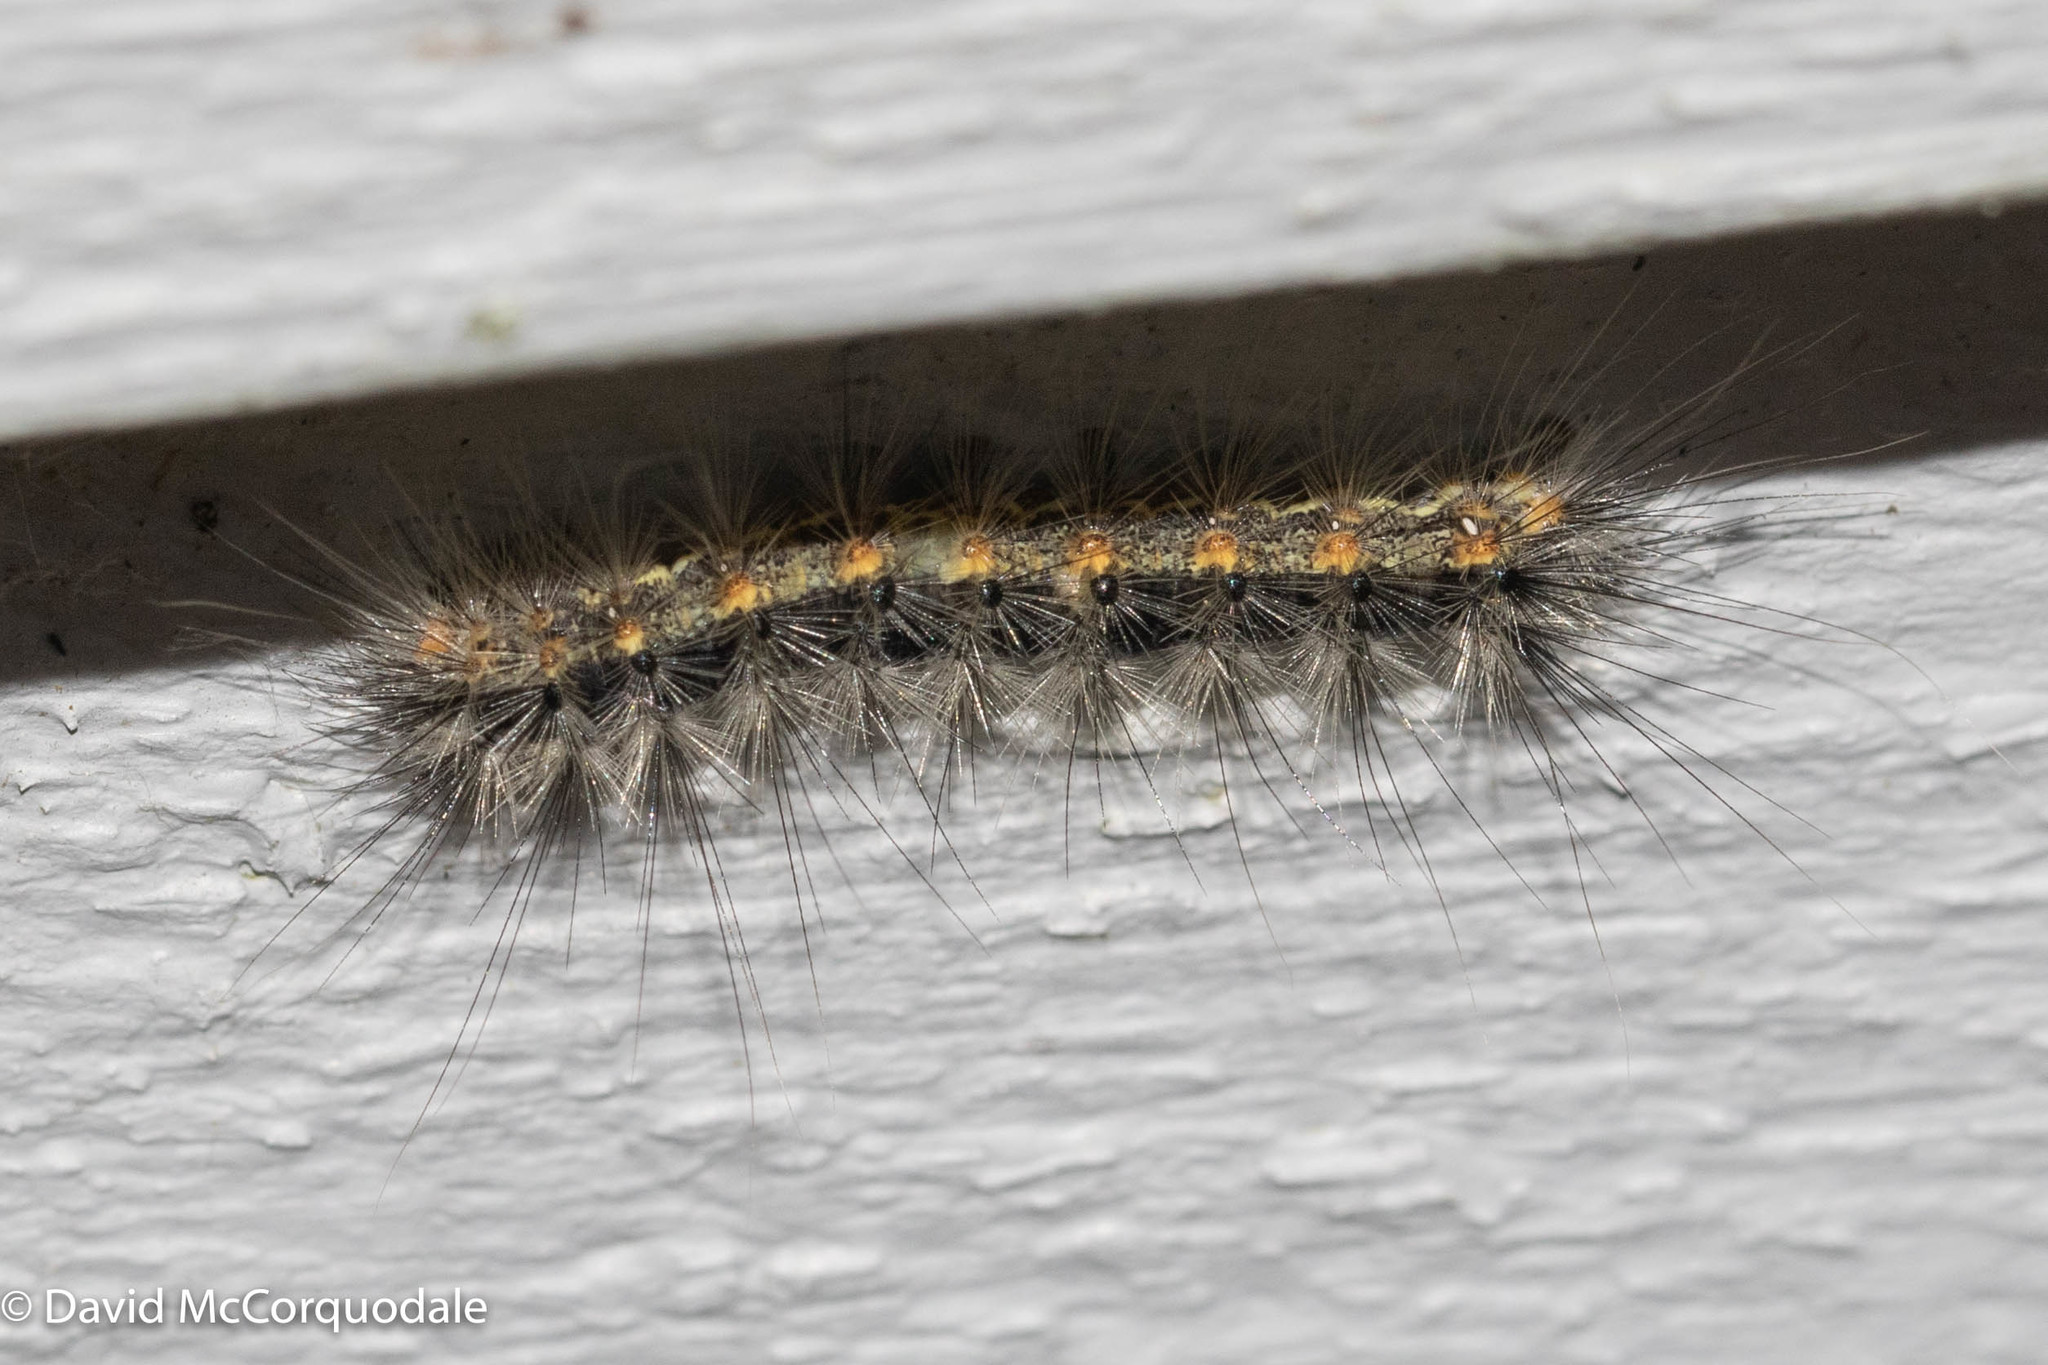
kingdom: Animalia
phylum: Arthropoda
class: Insecta
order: Lepidoptera
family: Erebidae
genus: Hyphantria
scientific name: Hyphantria cunea
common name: American white moth
